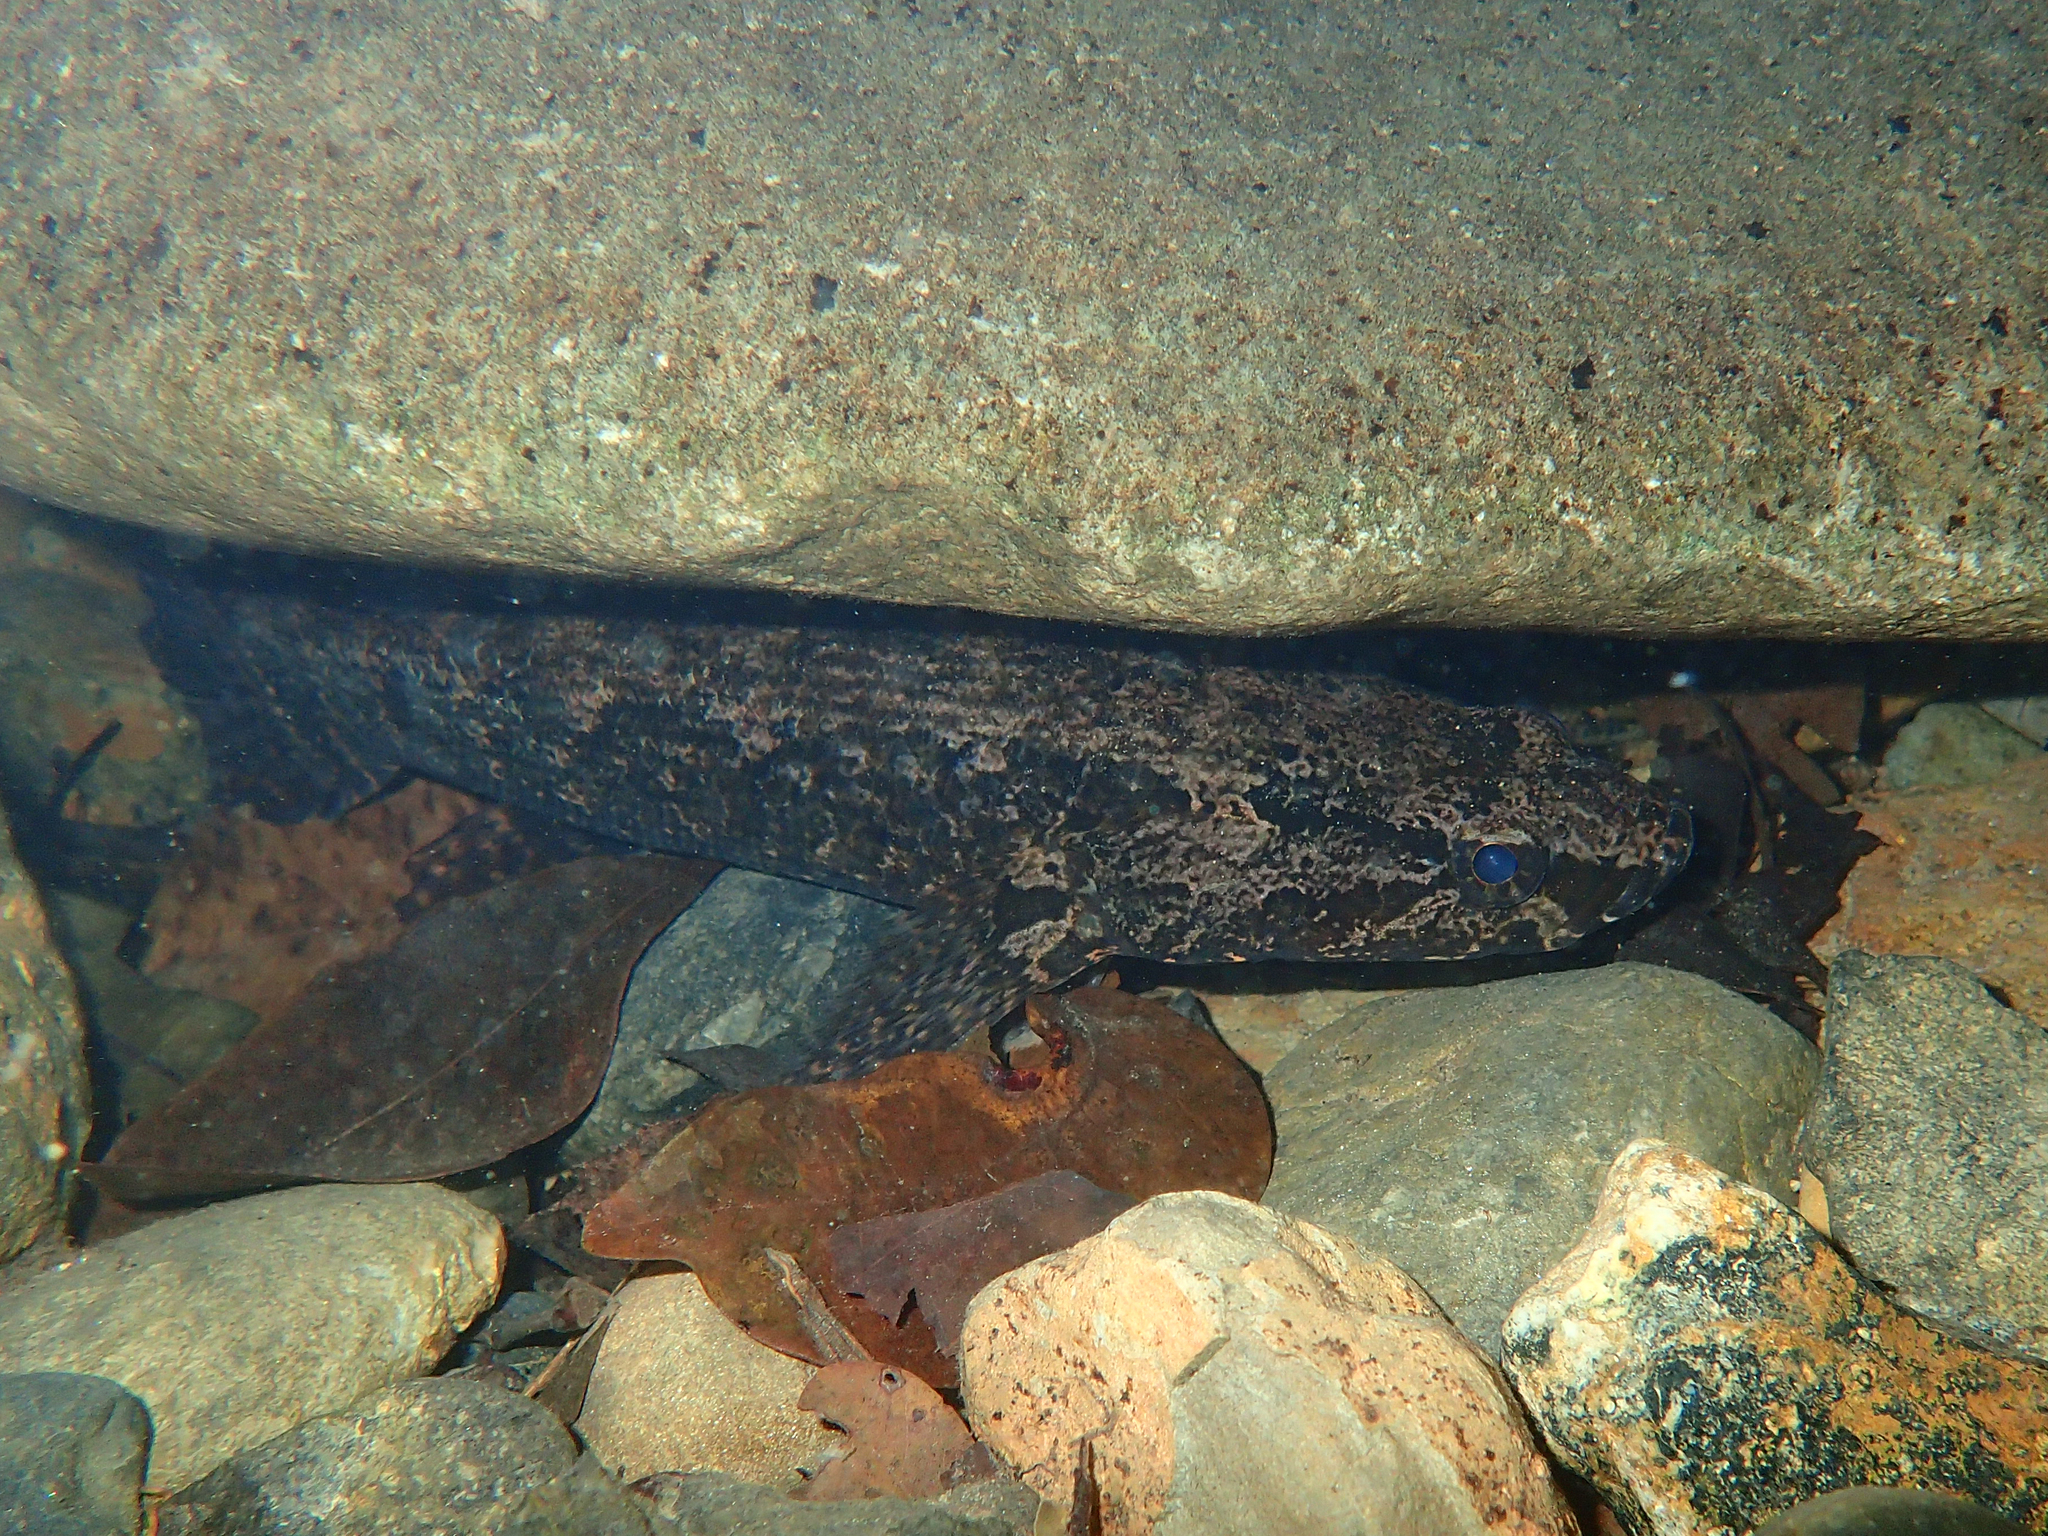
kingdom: Animalia
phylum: Chordata
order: Perciformes
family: Eleotridae
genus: Bunaka
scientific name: Bunaka gyrinoides
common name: Green backed guavina
